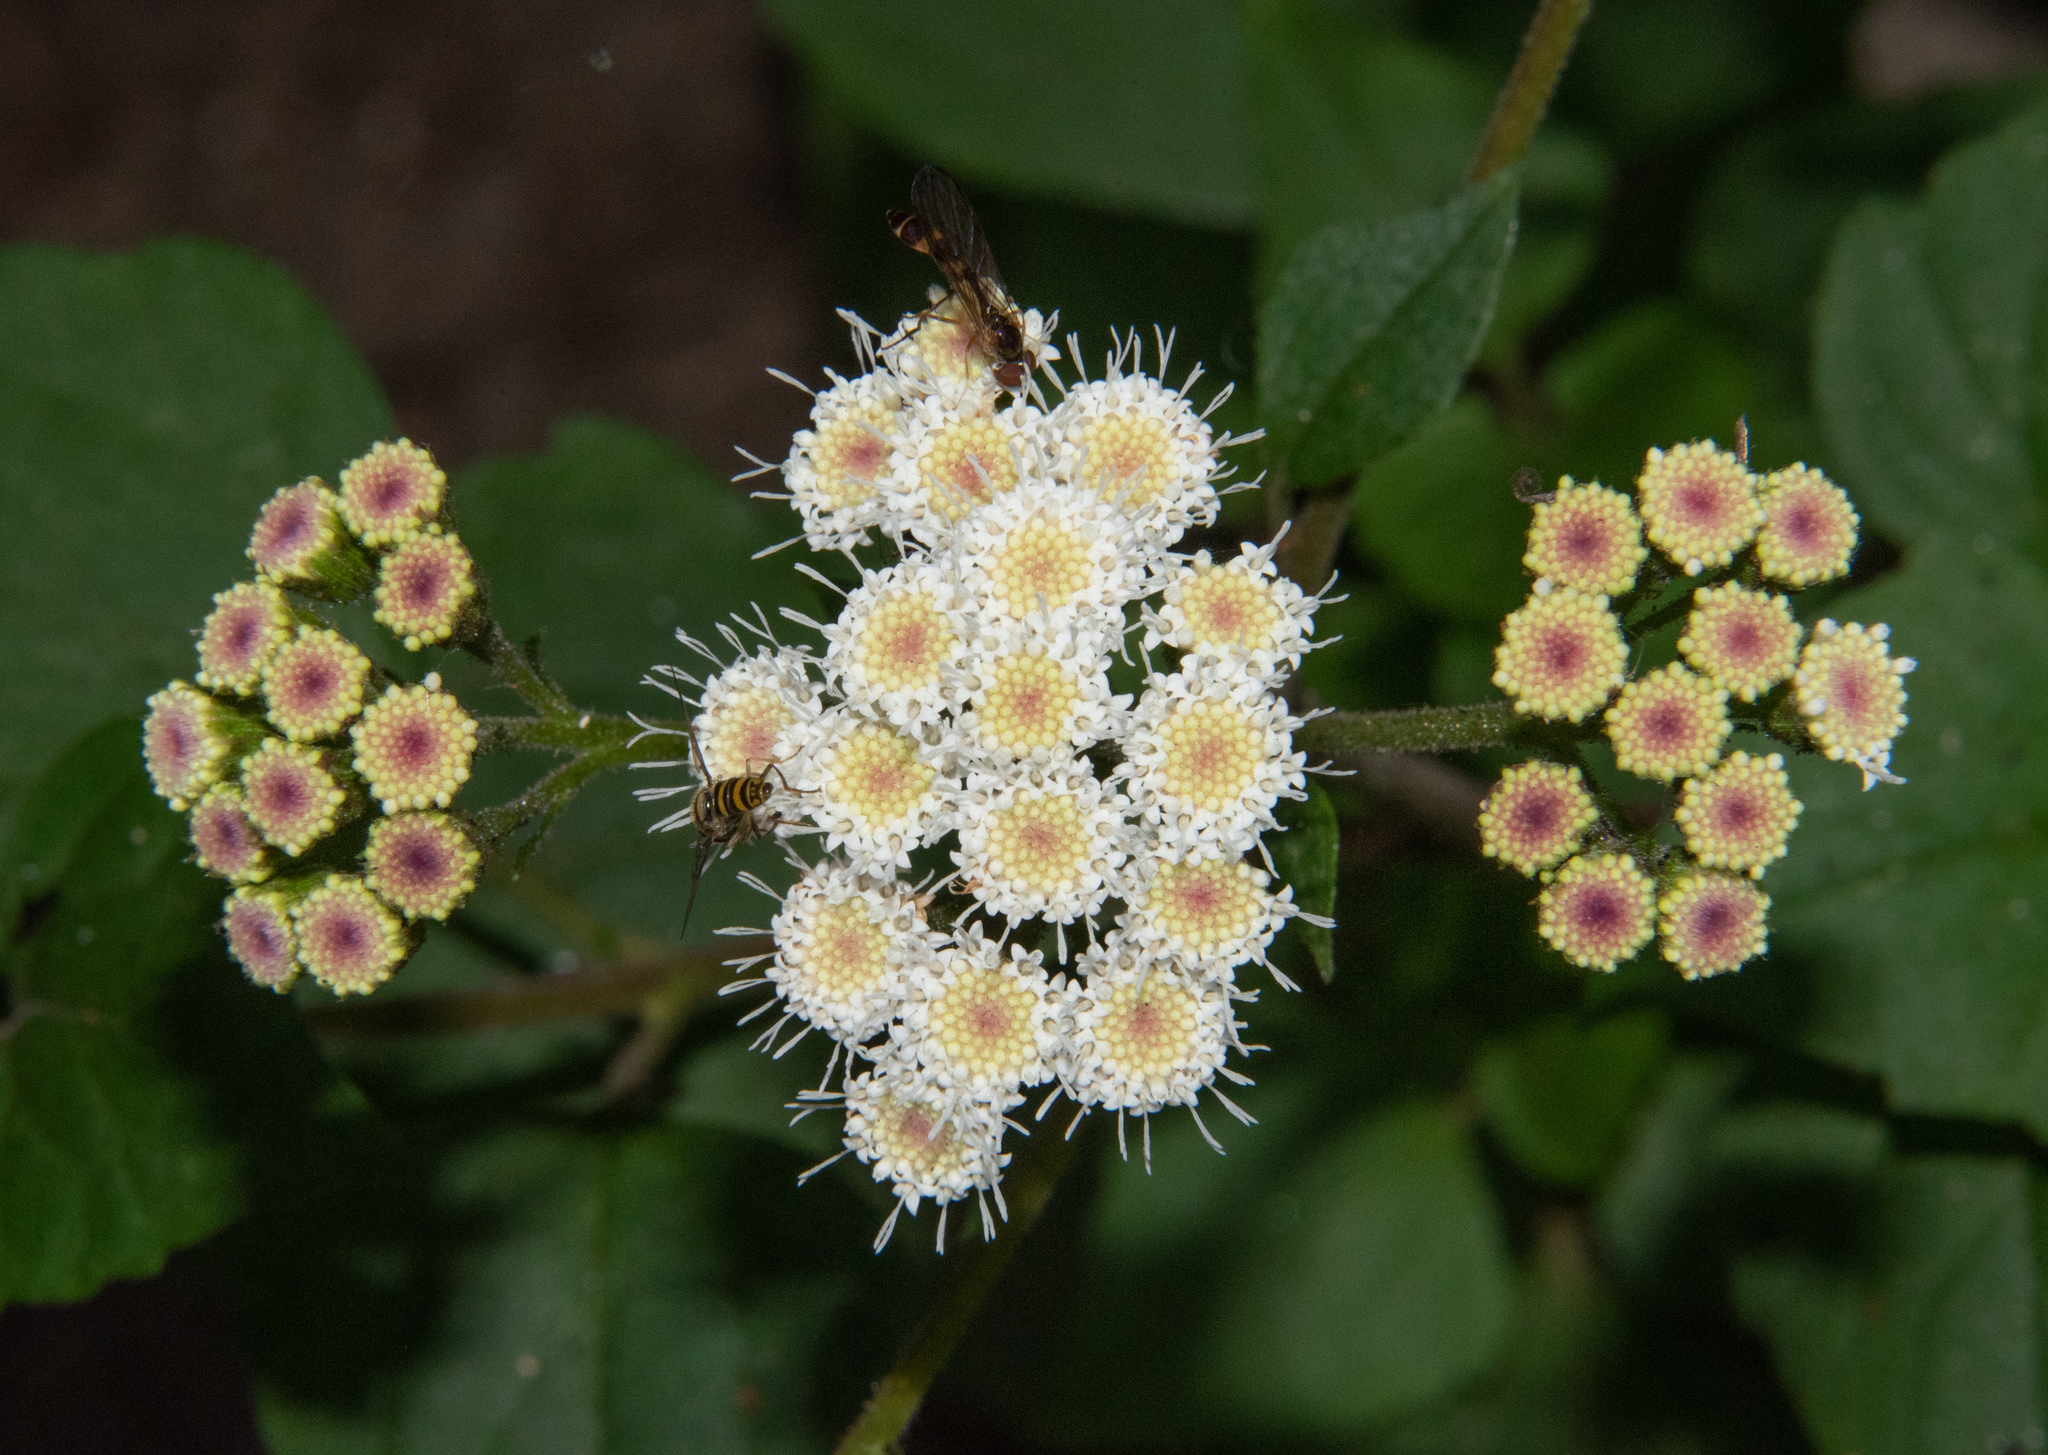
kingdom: Plantae
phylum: Tracheophyta
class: Magnoliopsida
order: Asterales
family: Asteraceae
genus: Ageratina
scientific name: Ageratina adenophora
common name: Sticky snakeroot
